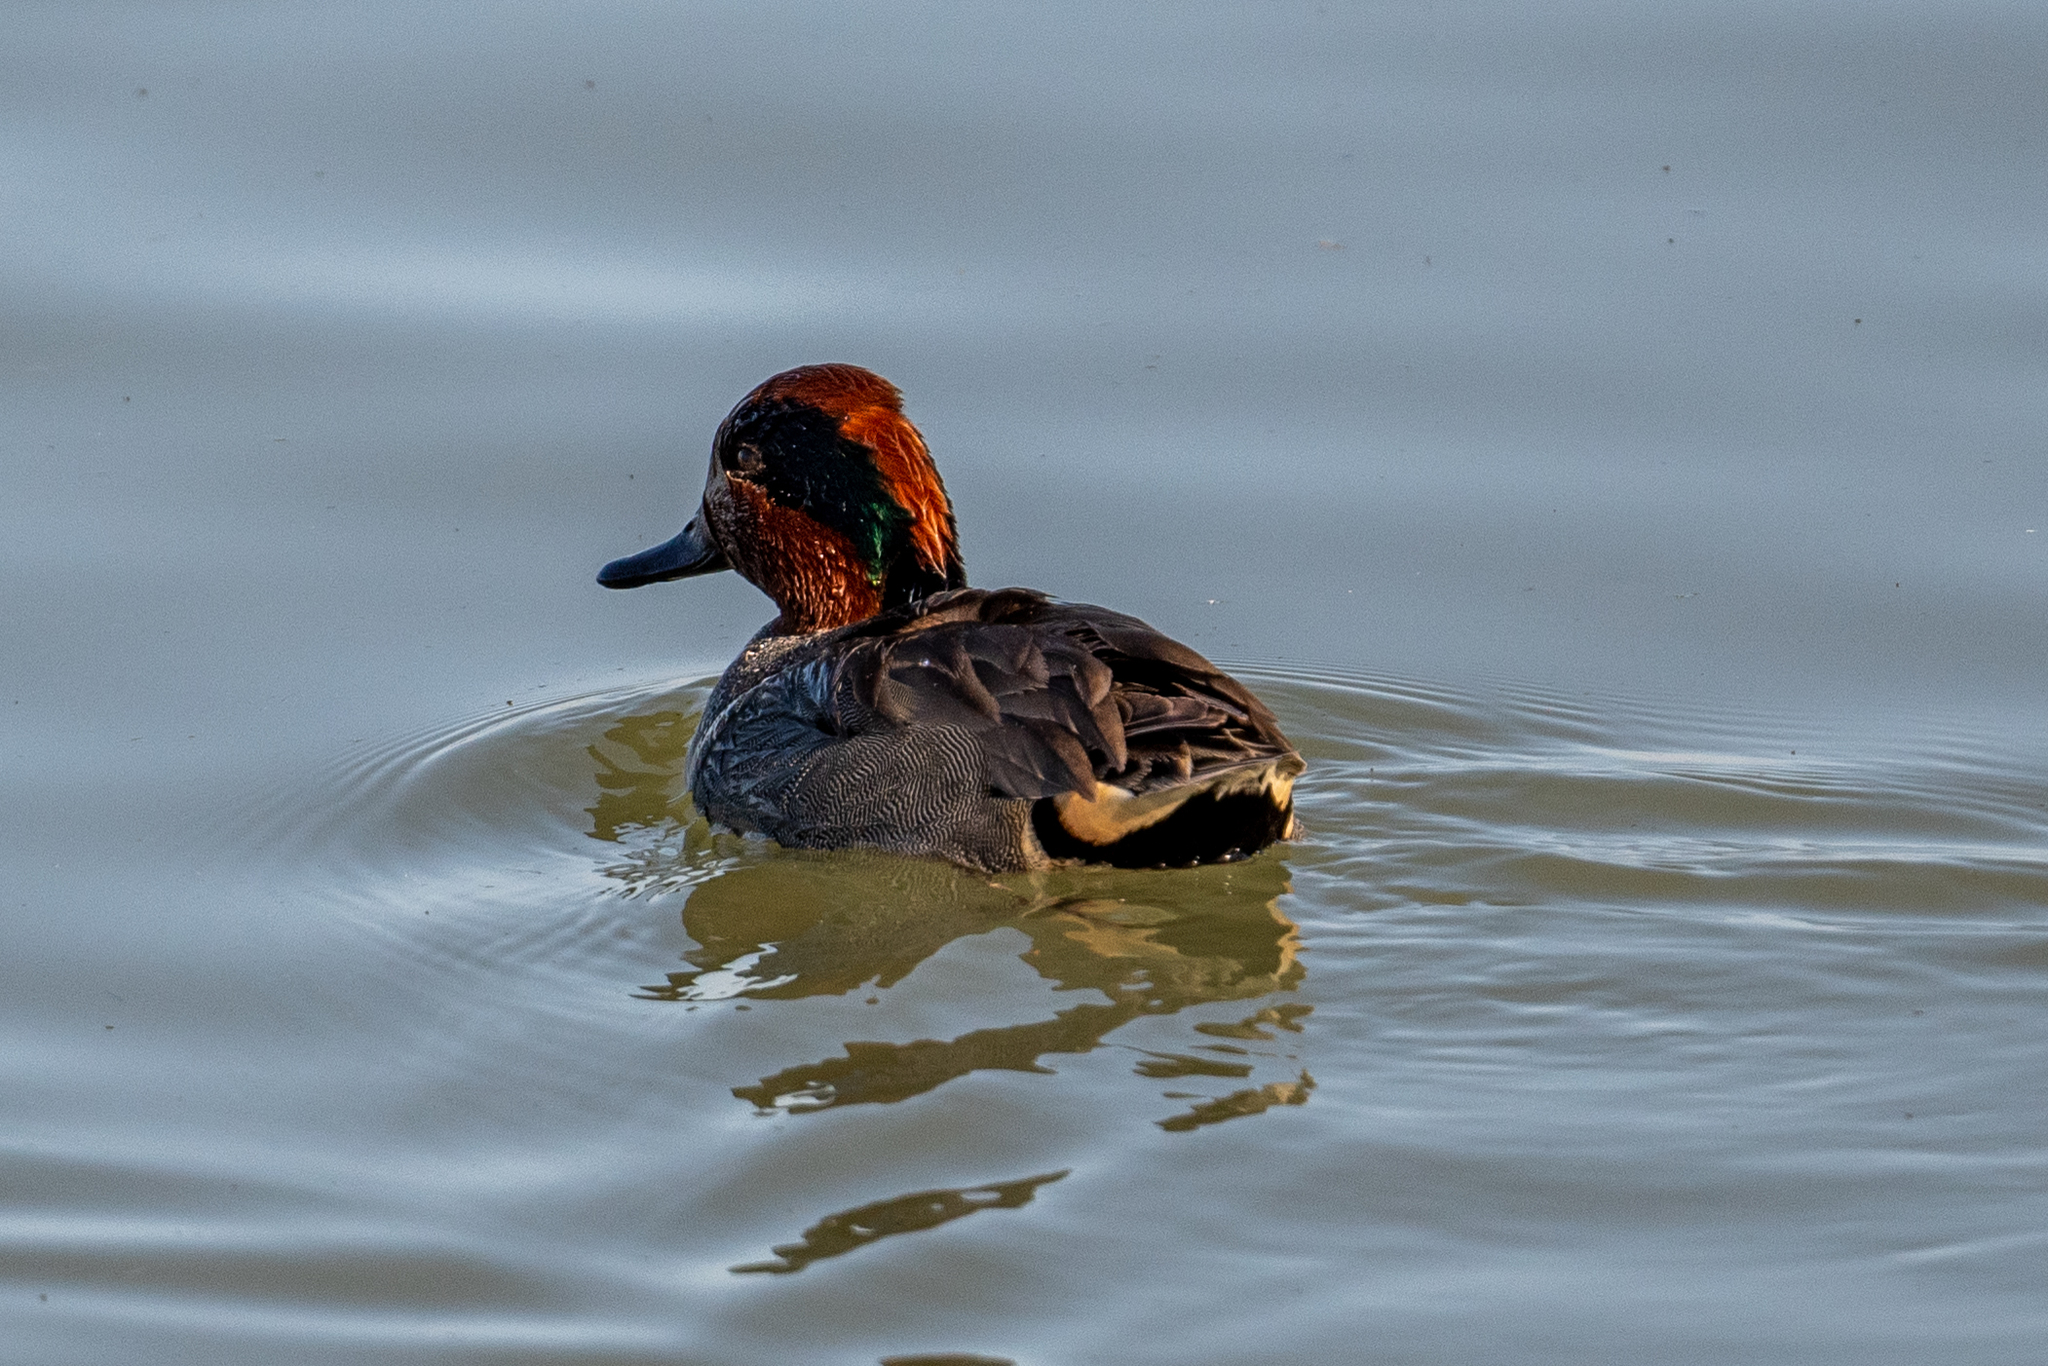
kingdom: Animalia
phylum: Chordata
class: Aves
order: Anseriformes
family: Anatidae
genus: Anas
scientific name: Anas crecca
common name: Eurasian teal
